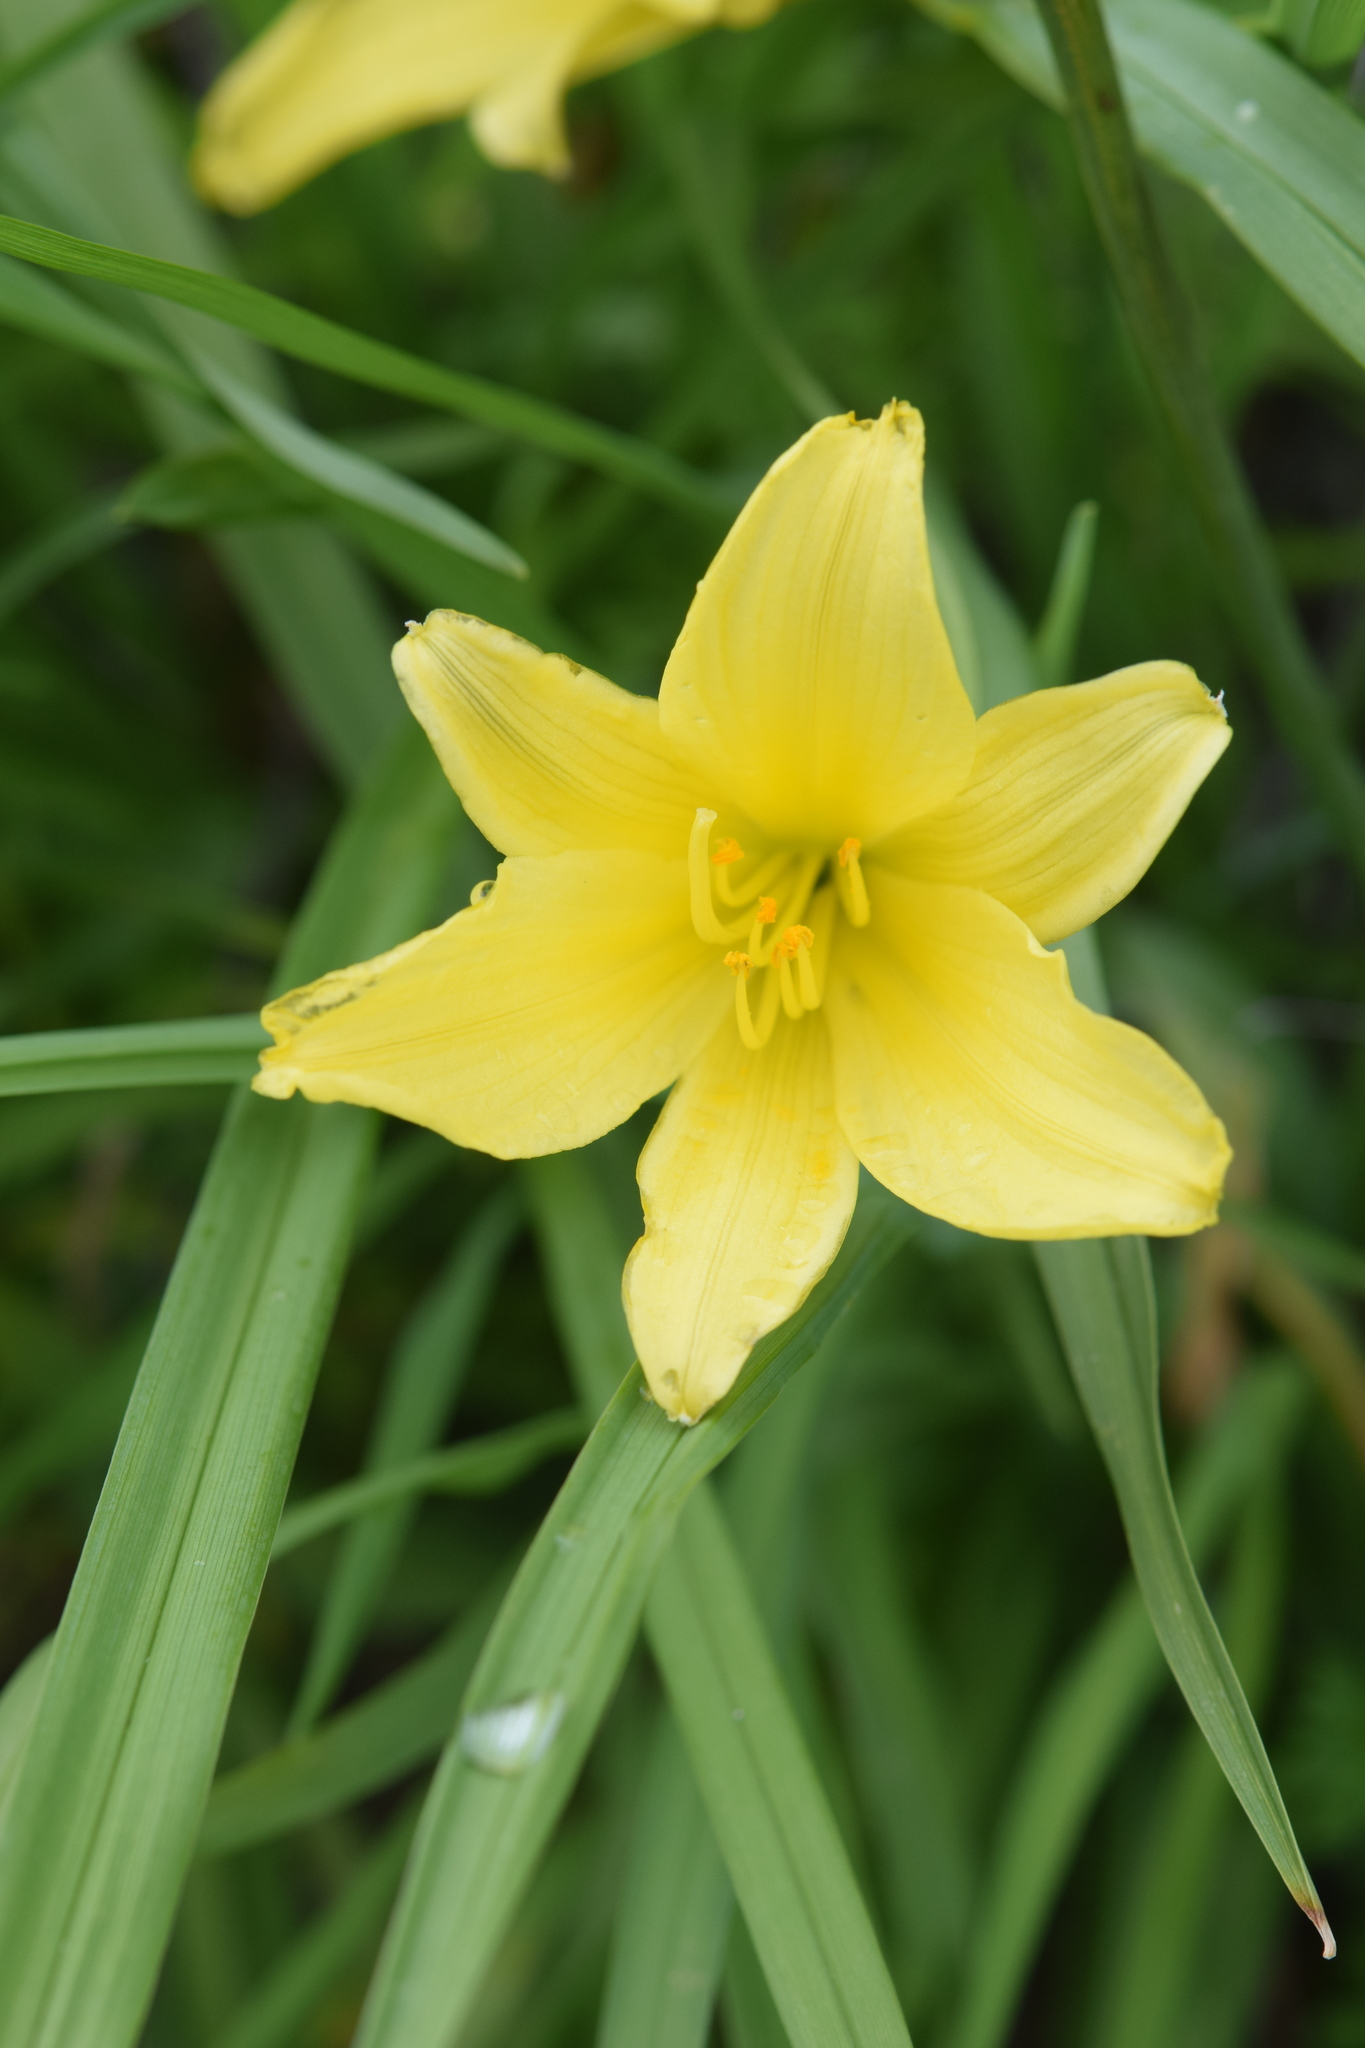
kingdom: Plantae
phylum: Tracheophyta
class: Liliopsida
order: Asparagales
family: Asphodelaceae
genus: Hemerocallis
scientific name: Hemerocallis minor
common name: Small daylily
